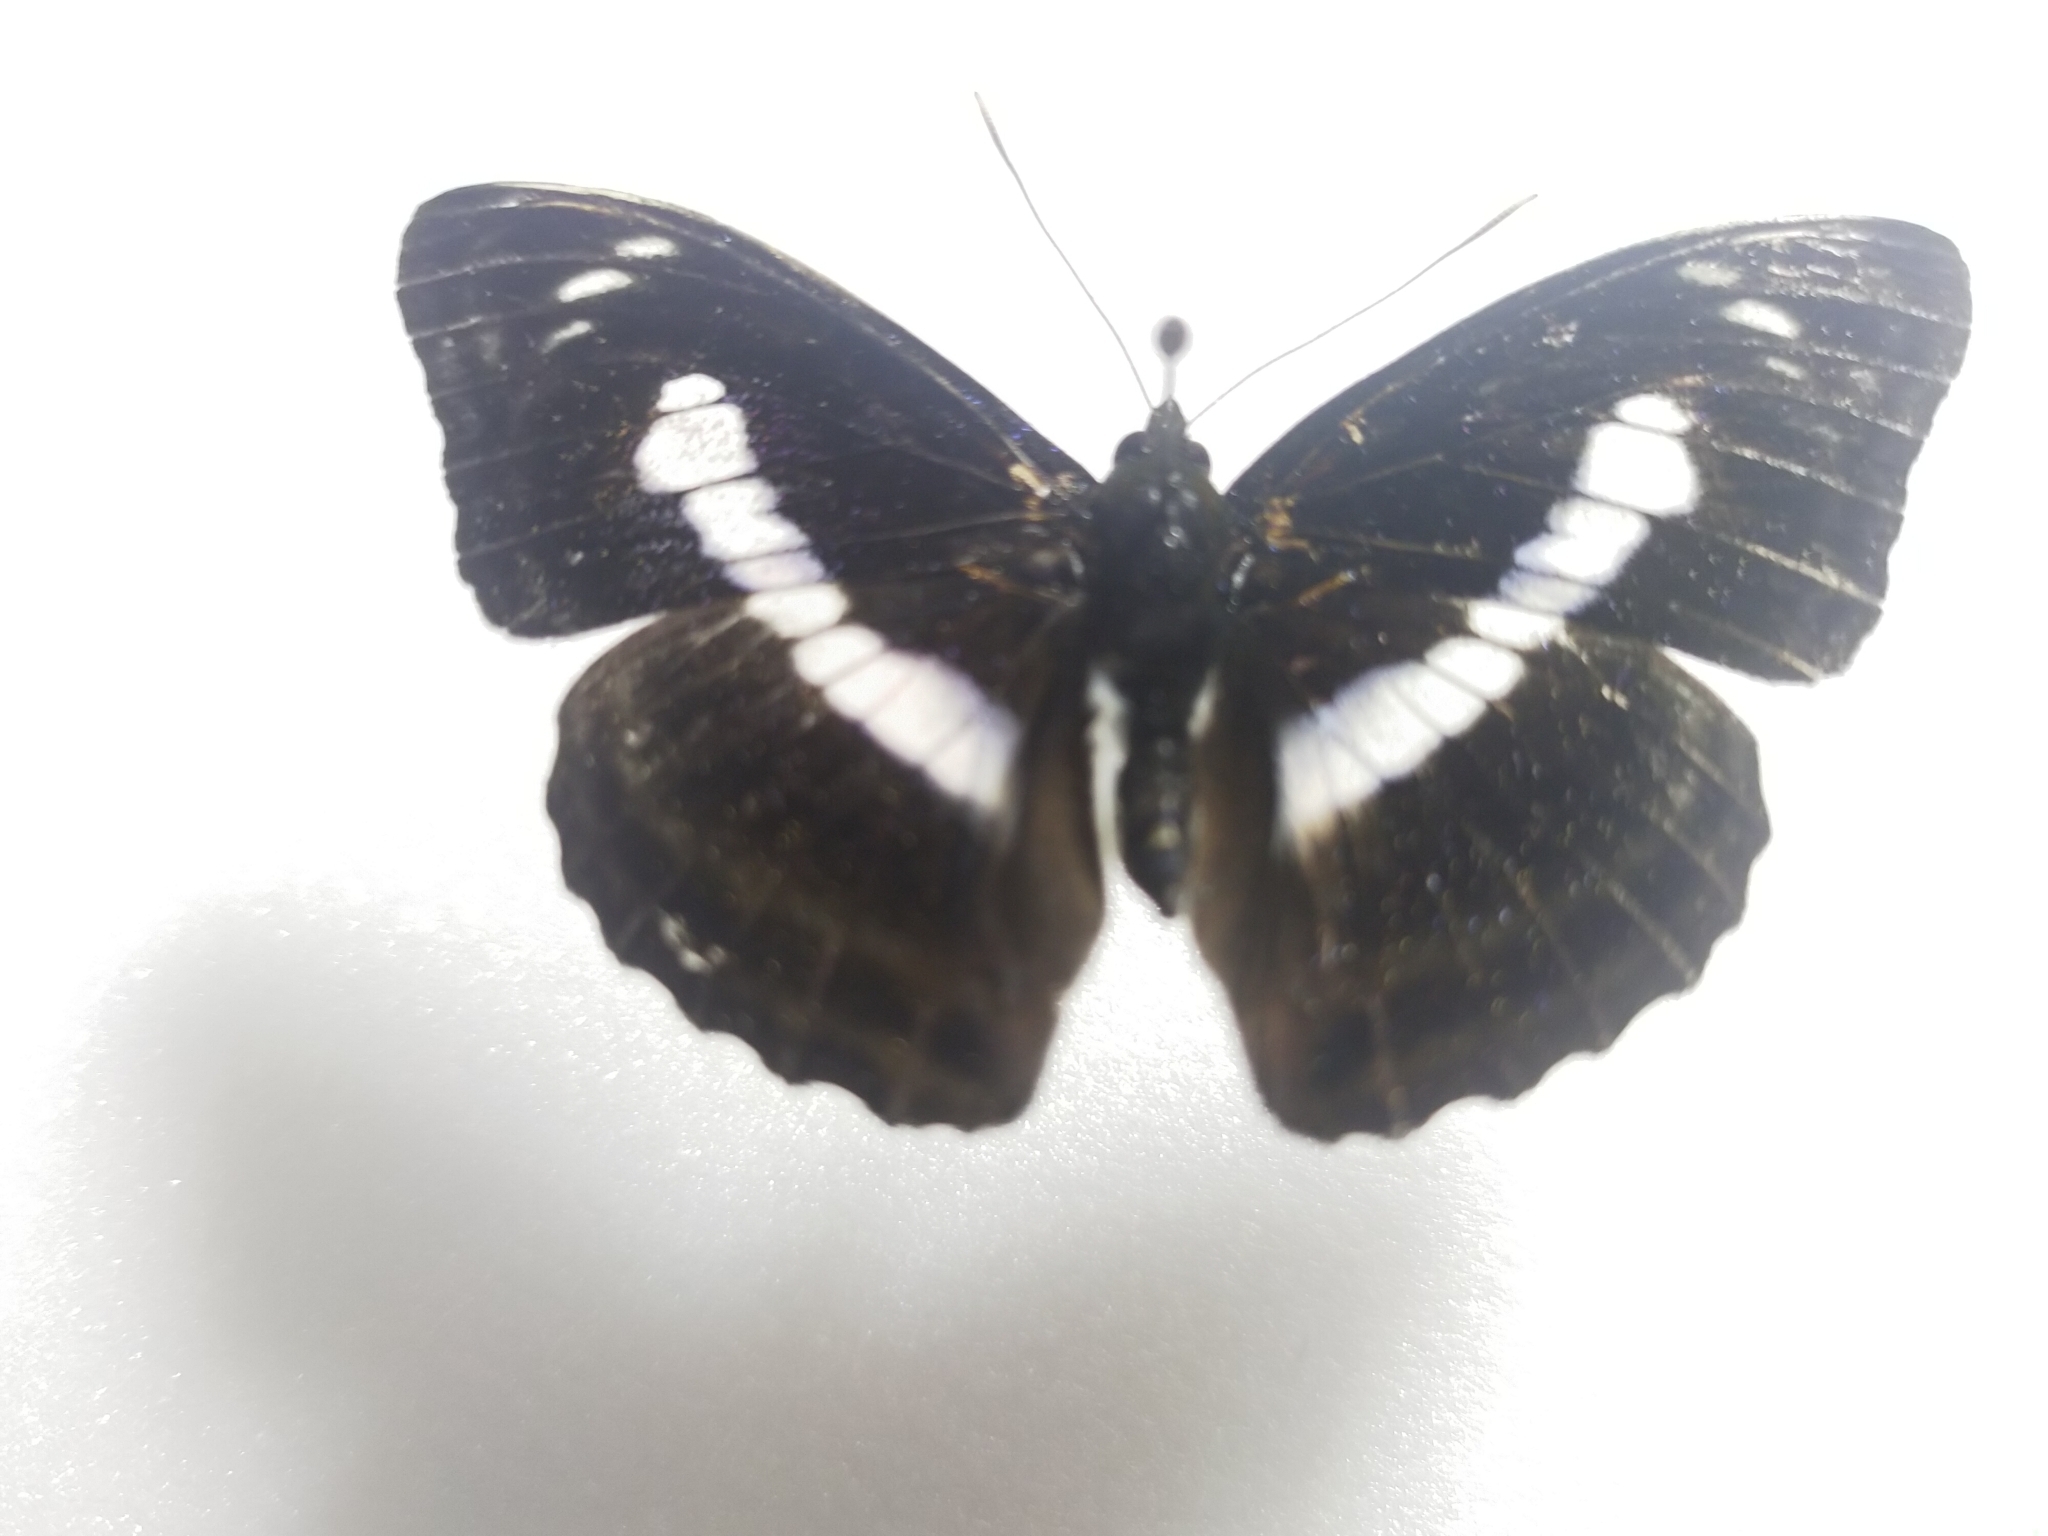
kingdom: Animalia
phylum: Arthropoda
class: Insecta
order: Lepidoptera
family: Nymphalidae
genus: Parathyma
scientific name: Parathyma selenophora
